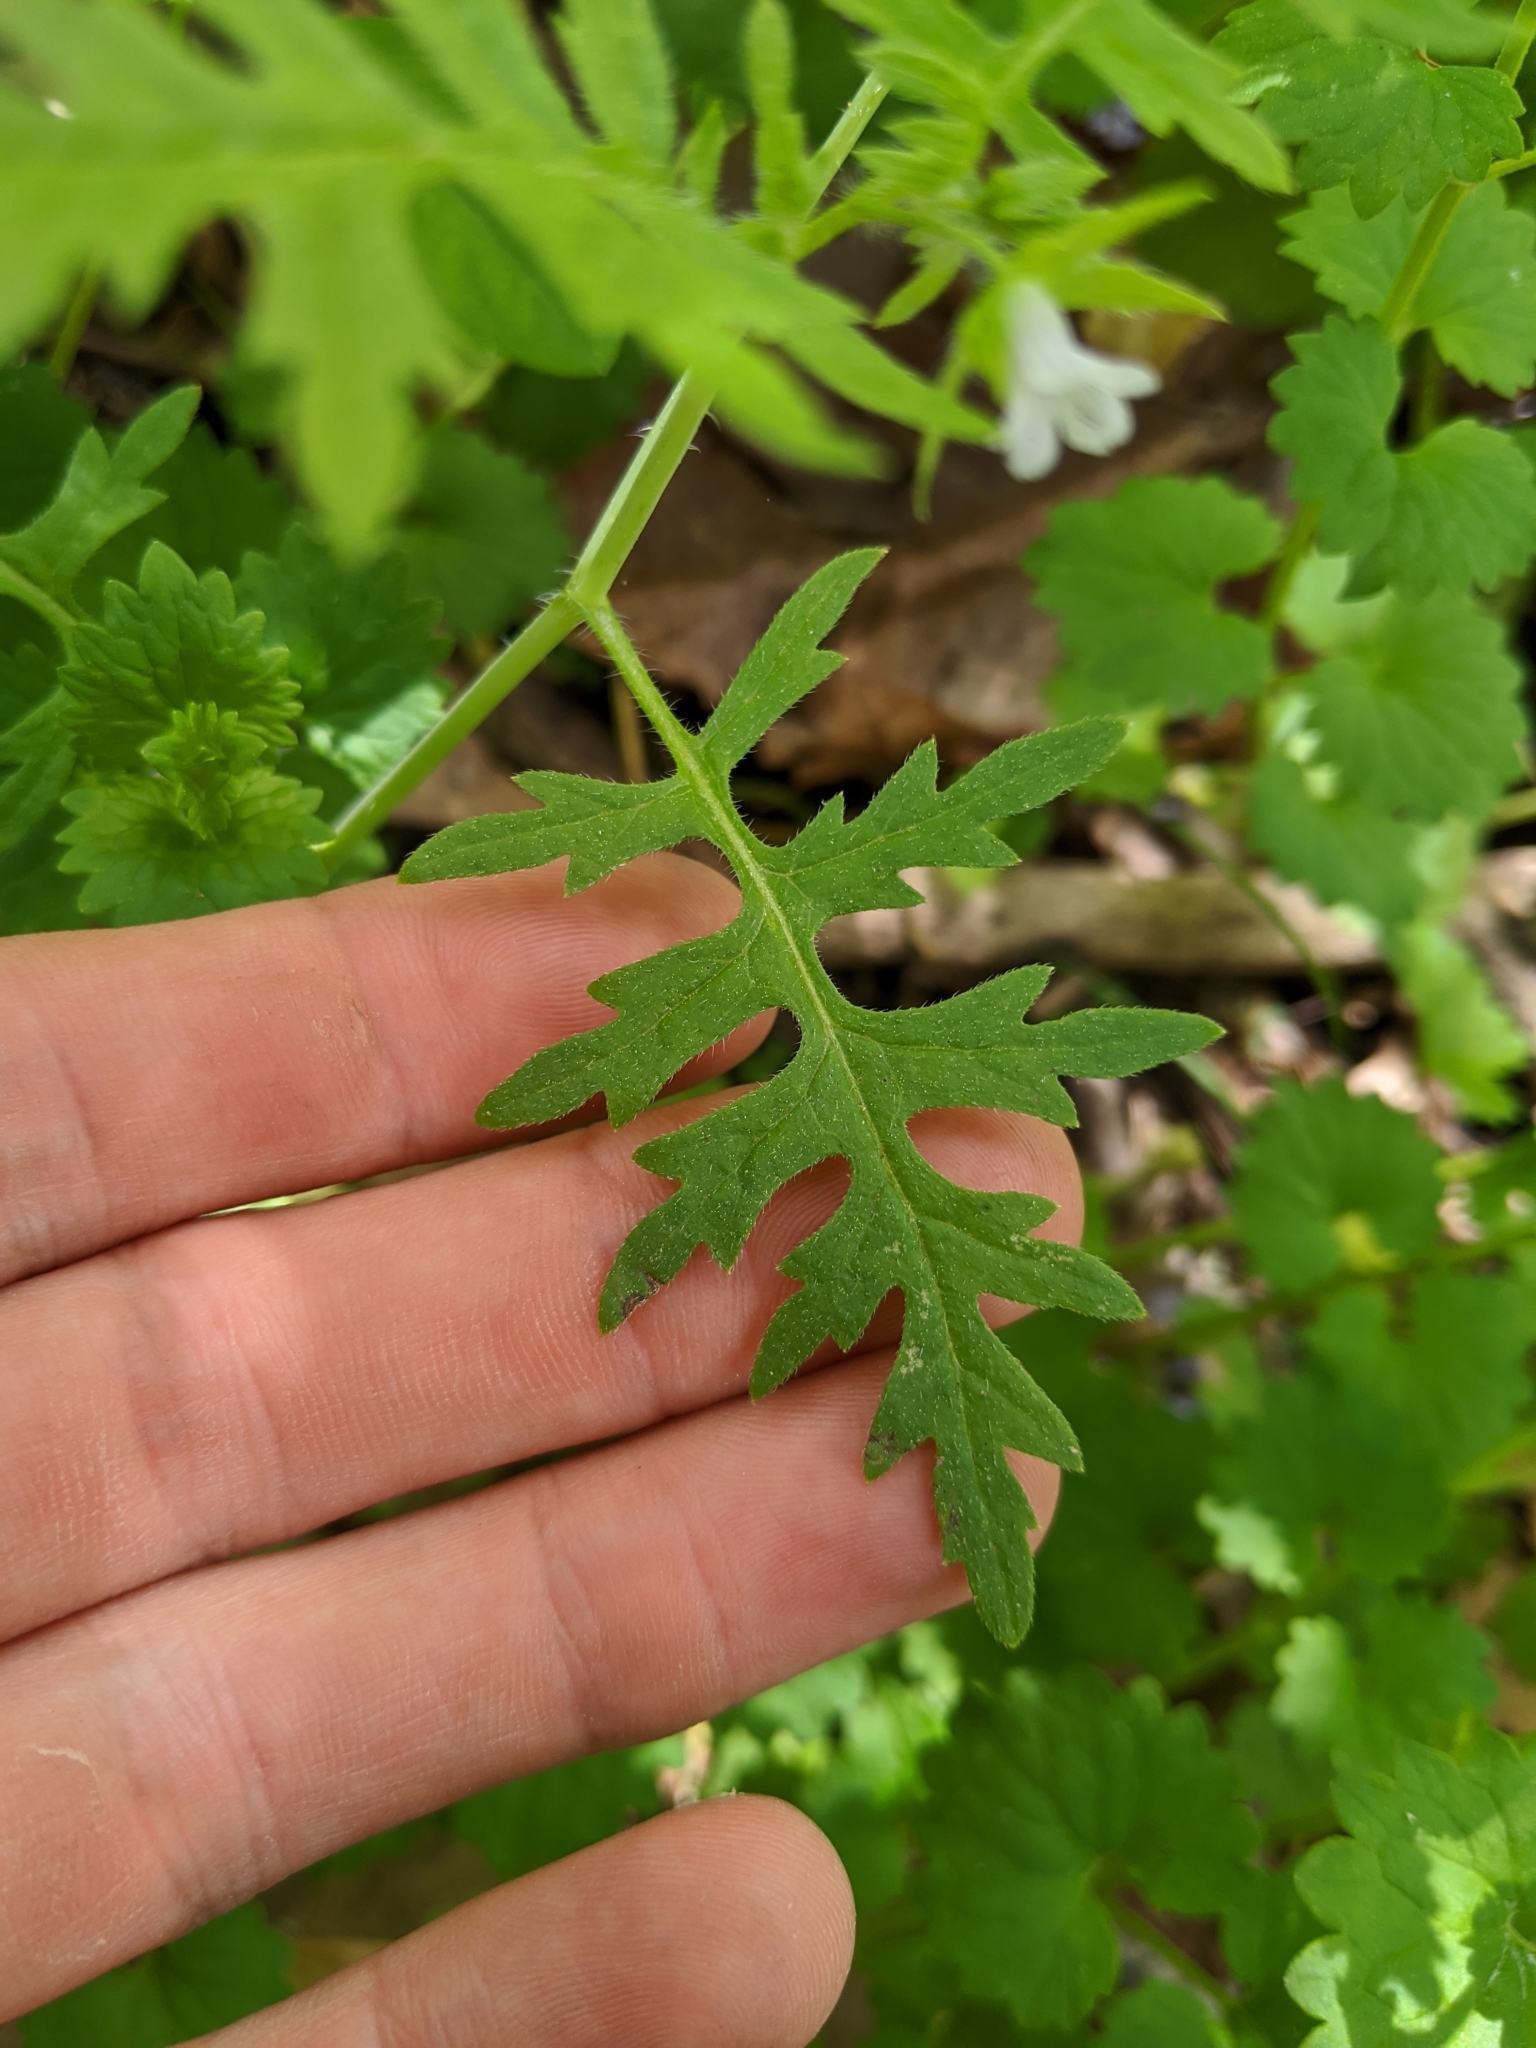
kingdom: Plantae
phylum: Tracheophyta
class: Magnoliopsida
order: Boraginales
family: Hydrophyllaceae
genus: Ellisia
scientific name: Ellisia nyctelea
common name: Aunt lucy
